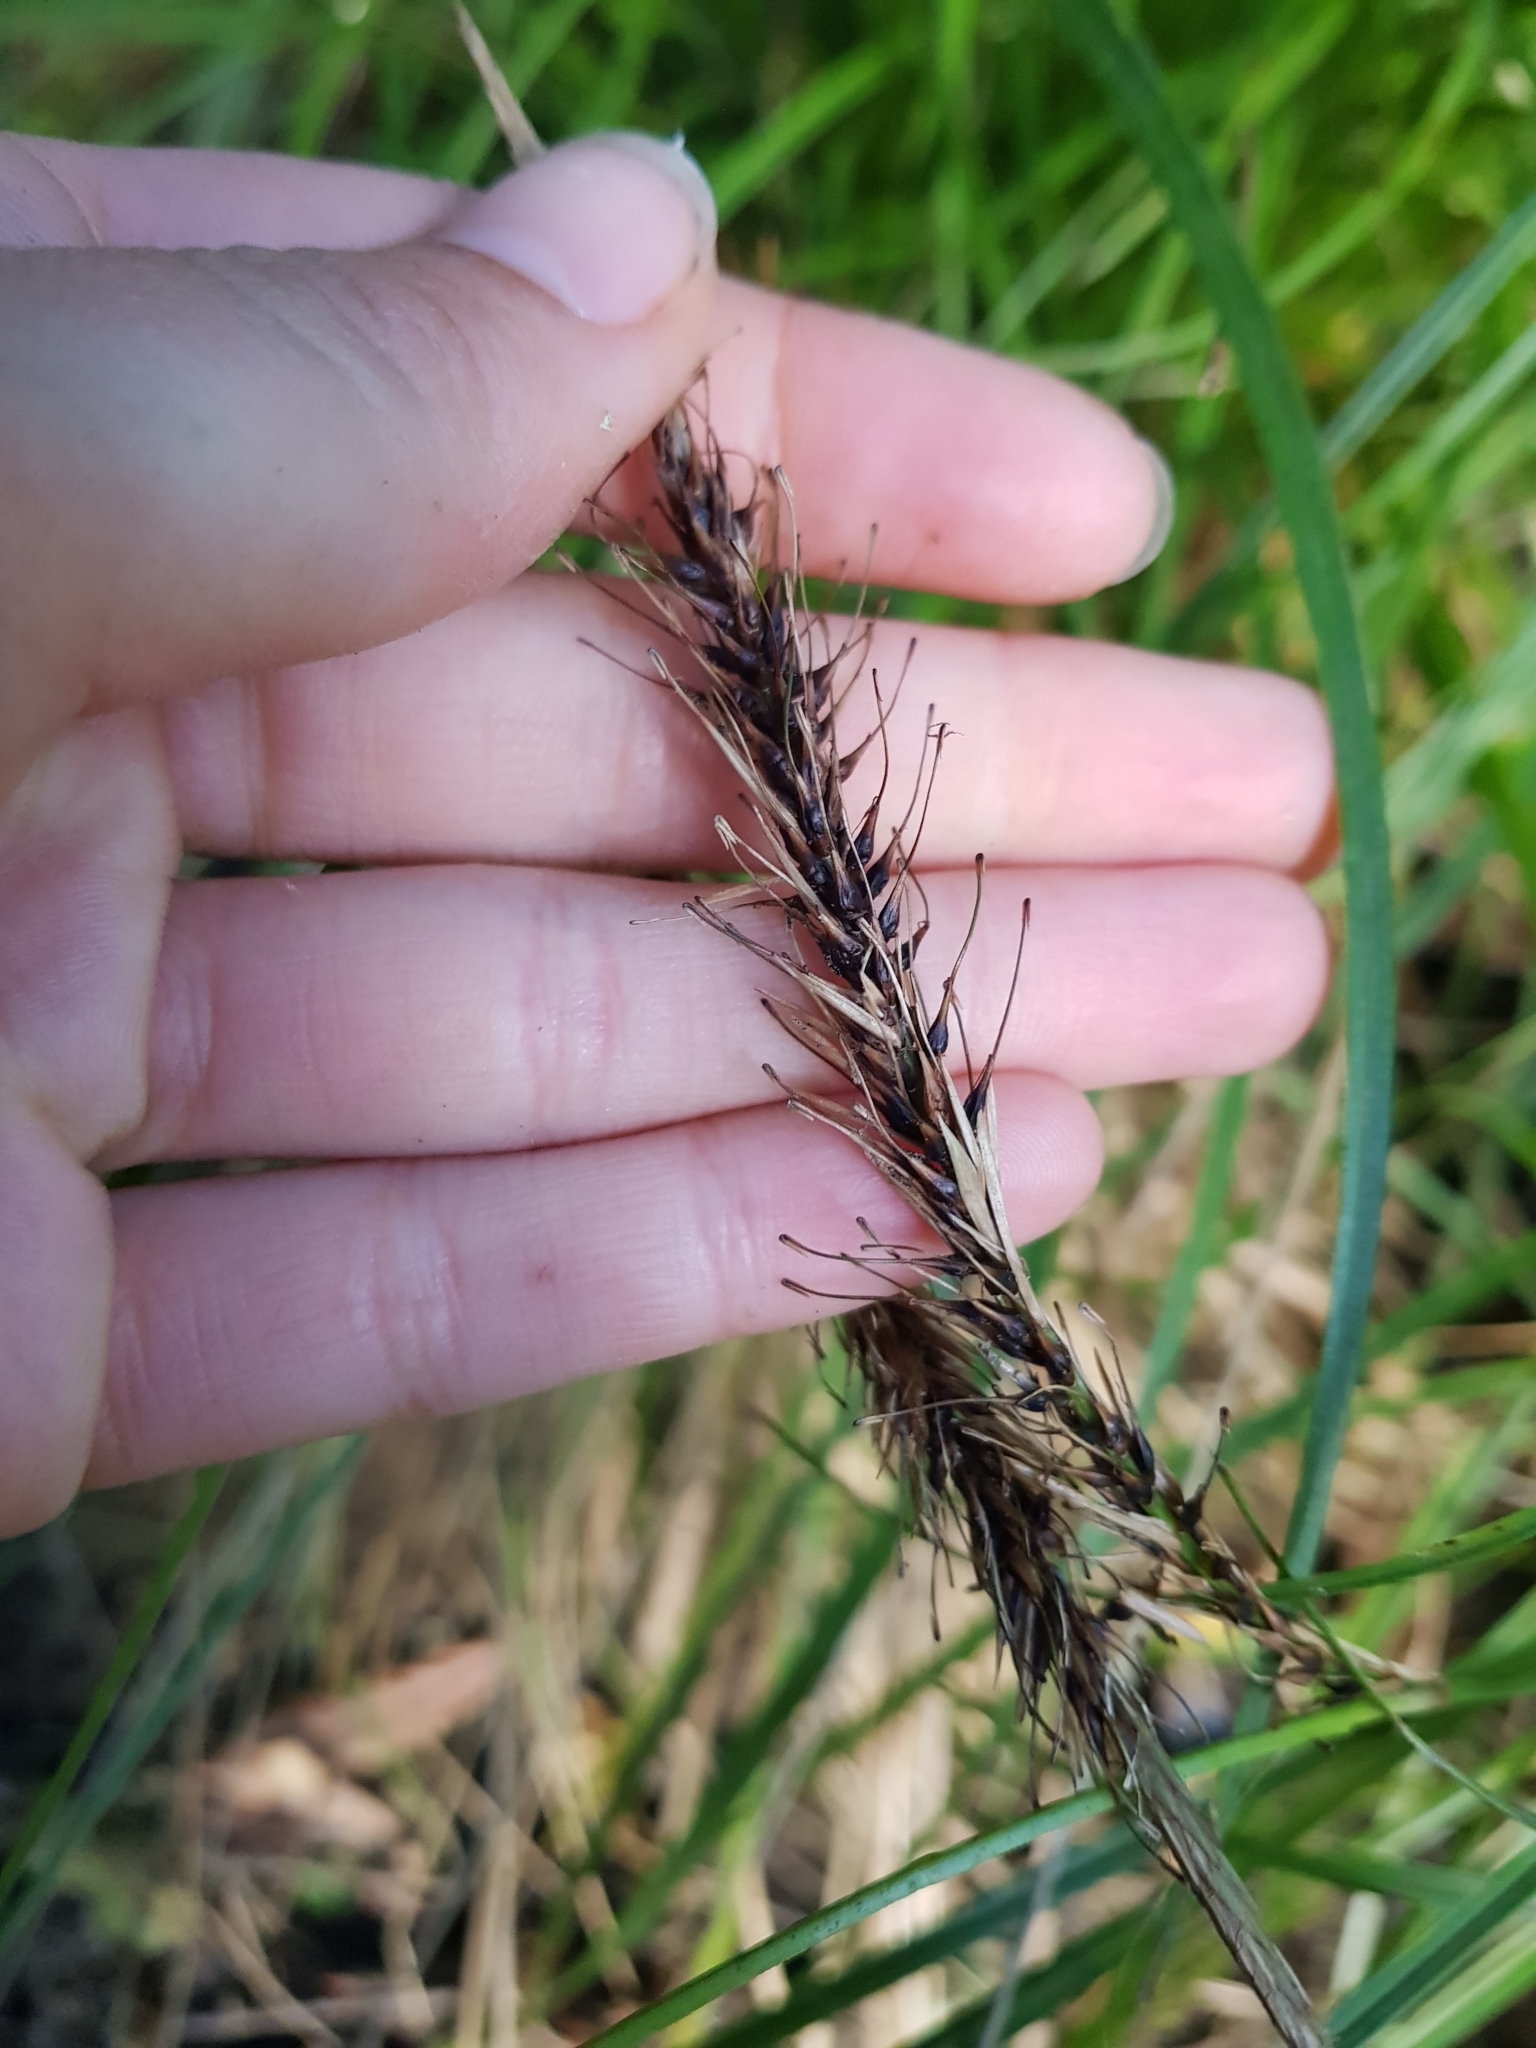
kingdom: Plantae
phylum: Tracheophyta
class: Liliopsida
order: Poales
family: Cyperaceae
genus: Carex
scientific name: Carex megalepis
